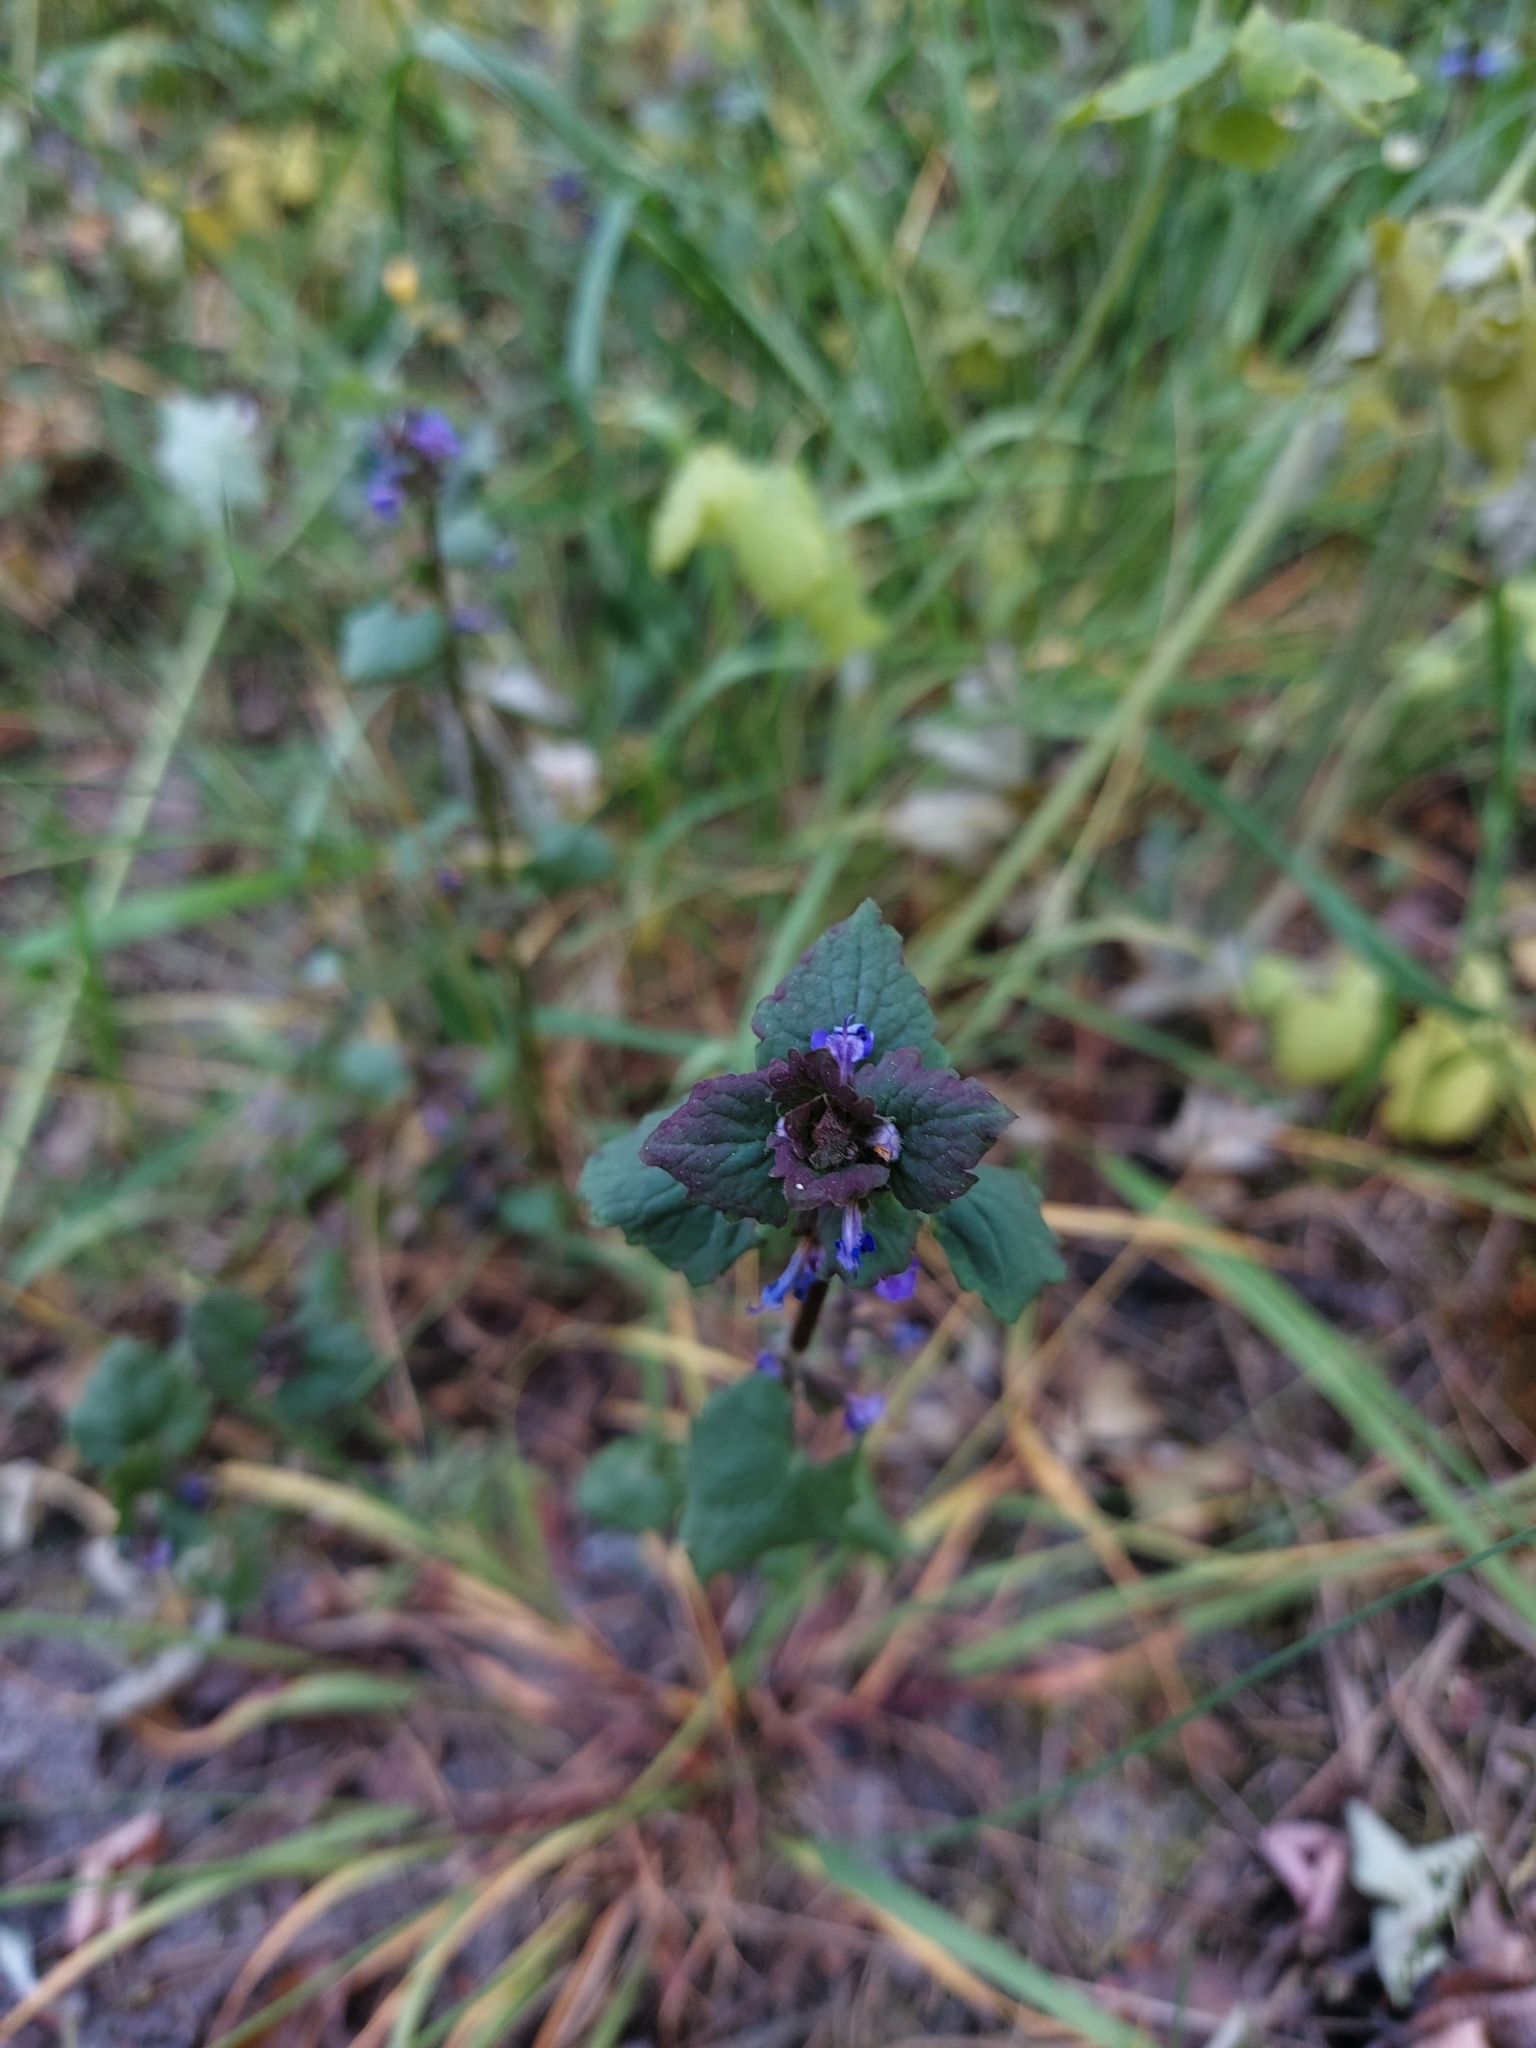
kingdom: Plantae
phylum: Tracheophyta
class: Magnoliopsida
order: Lamiales
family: Lamiaceae
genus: Glechoma
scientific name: Glechoma hederacea
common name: Ground ivy
